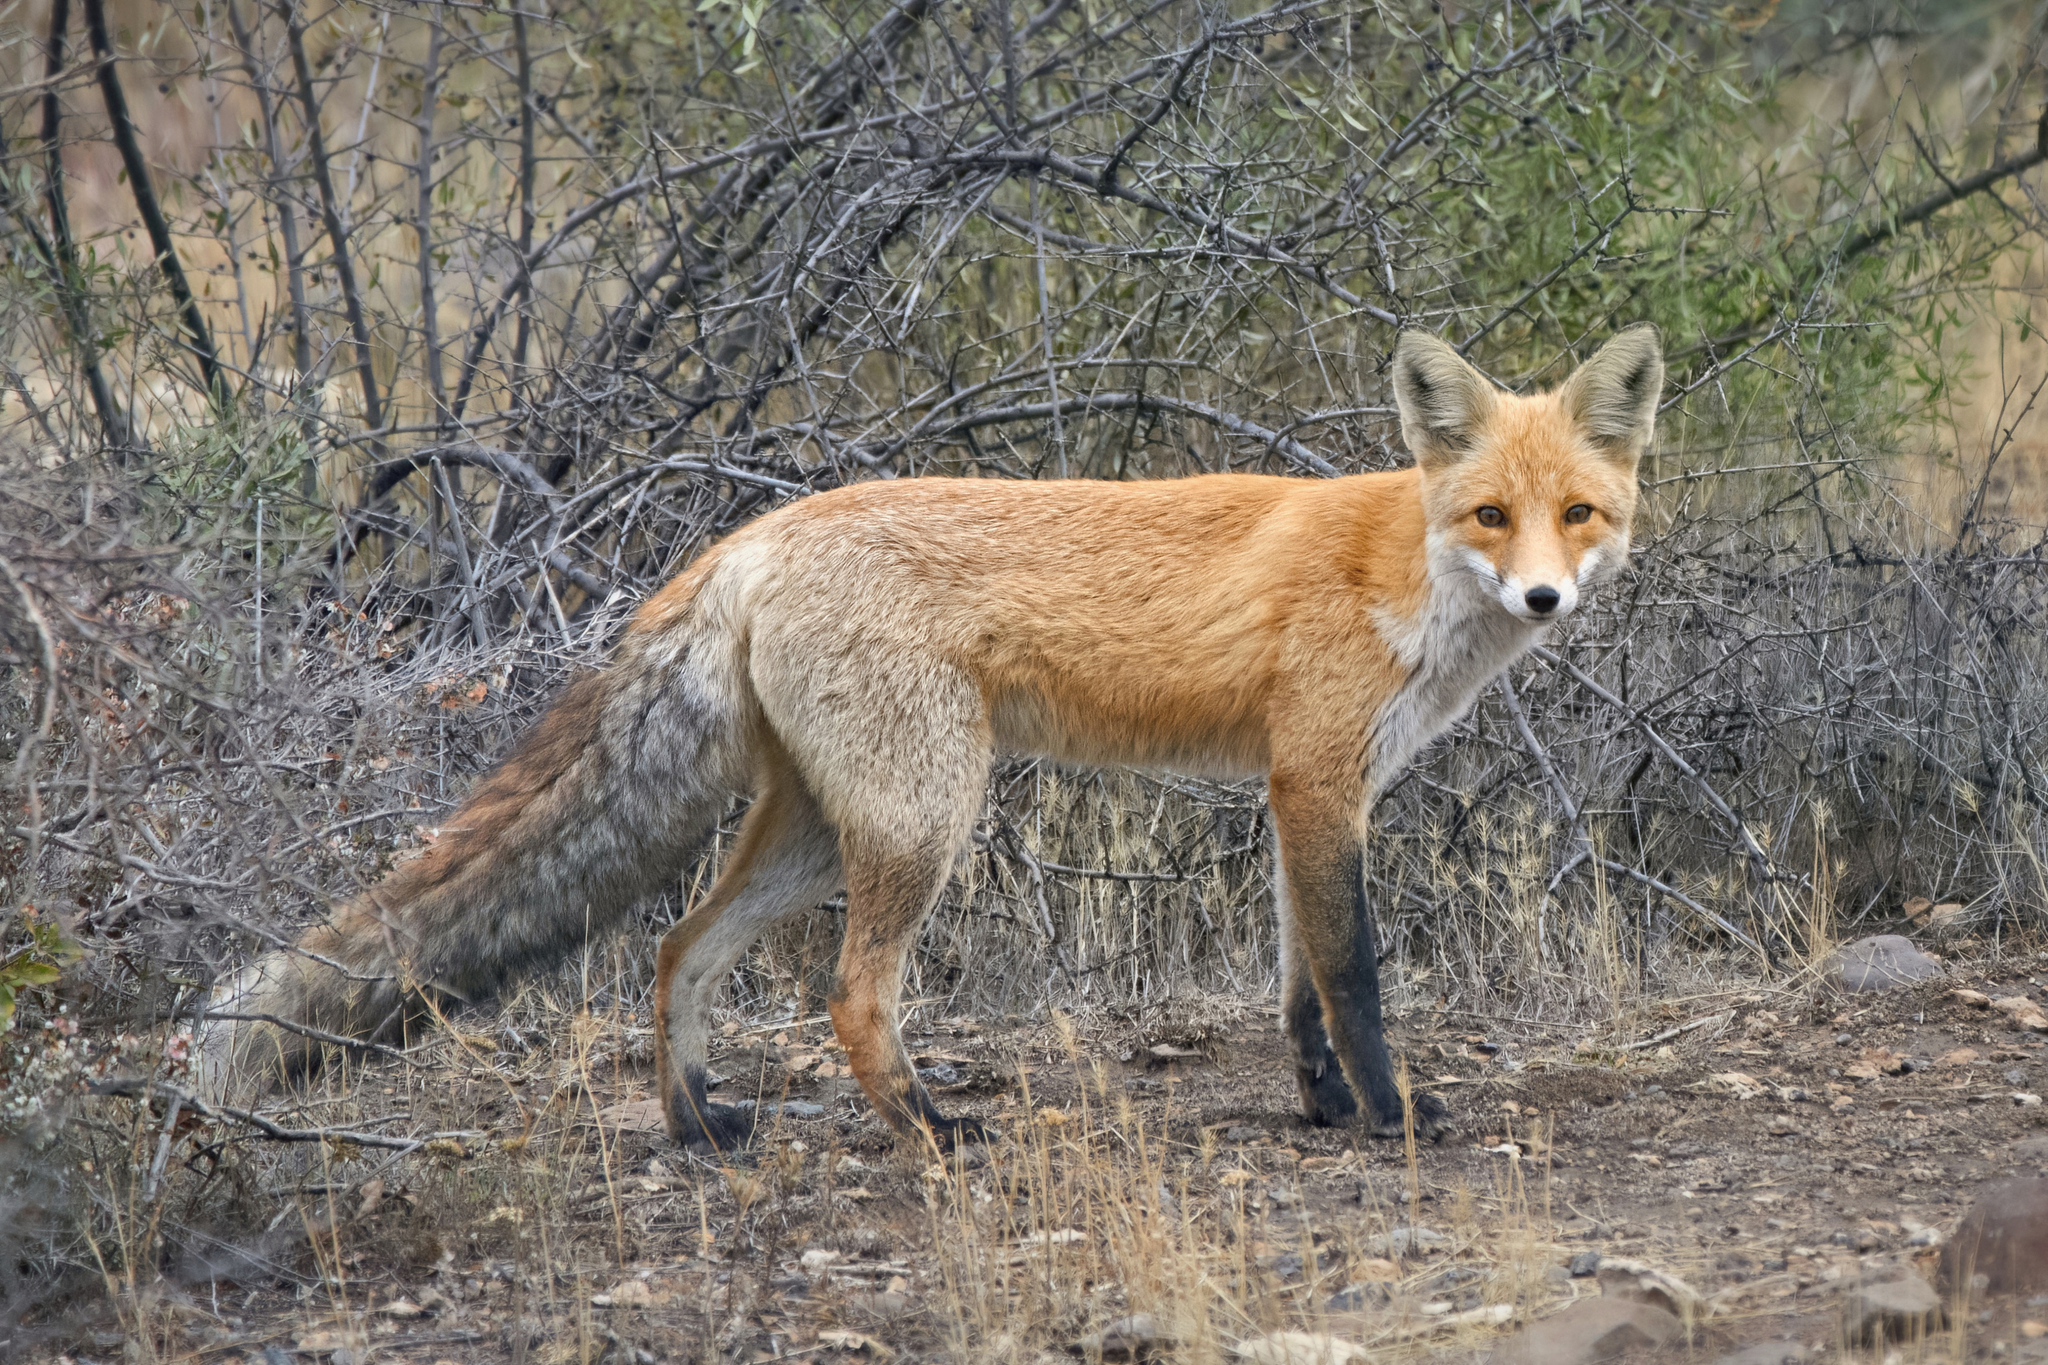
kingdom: Animalia
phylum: Chordata
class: Mammalia
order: Carnivora
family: Canidae
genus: Vulpes
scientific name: Vulpes vulpes
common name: Red fox
